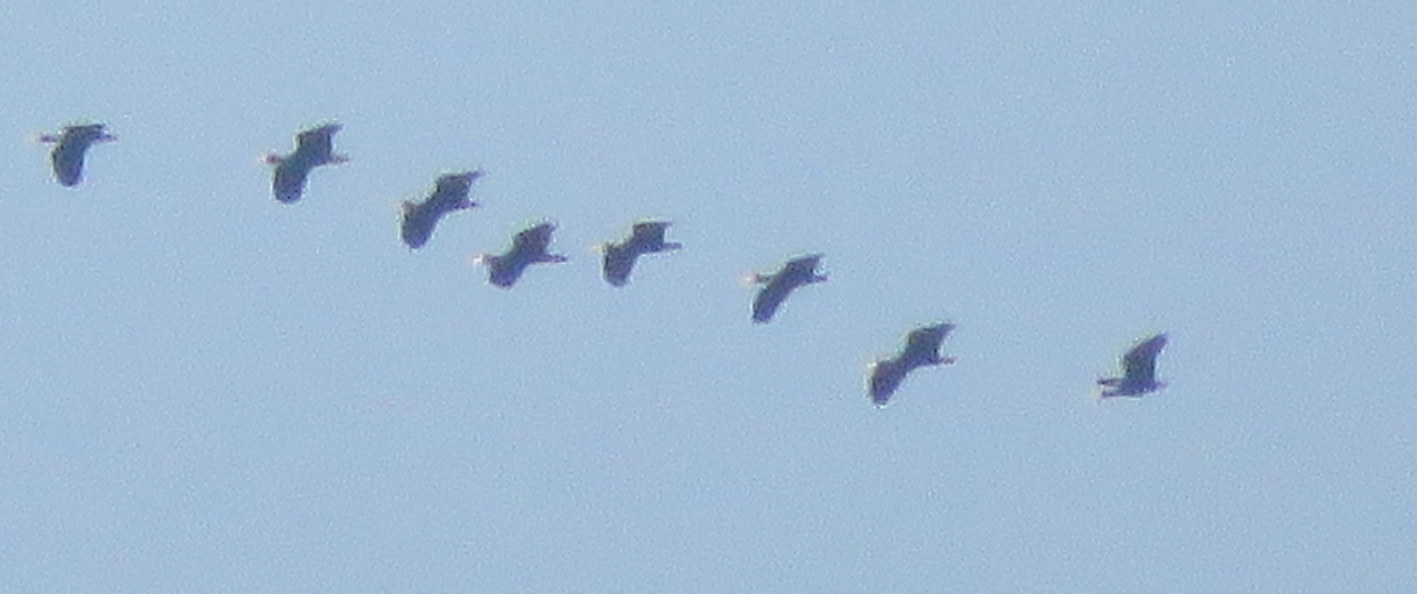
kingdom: Animalia
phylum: Chordata
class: Aves
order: Pelecaniformes
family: Threskiornithidae
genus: Phimosus
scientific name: Phimosus infuscatus
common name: Bare-faced ibis
